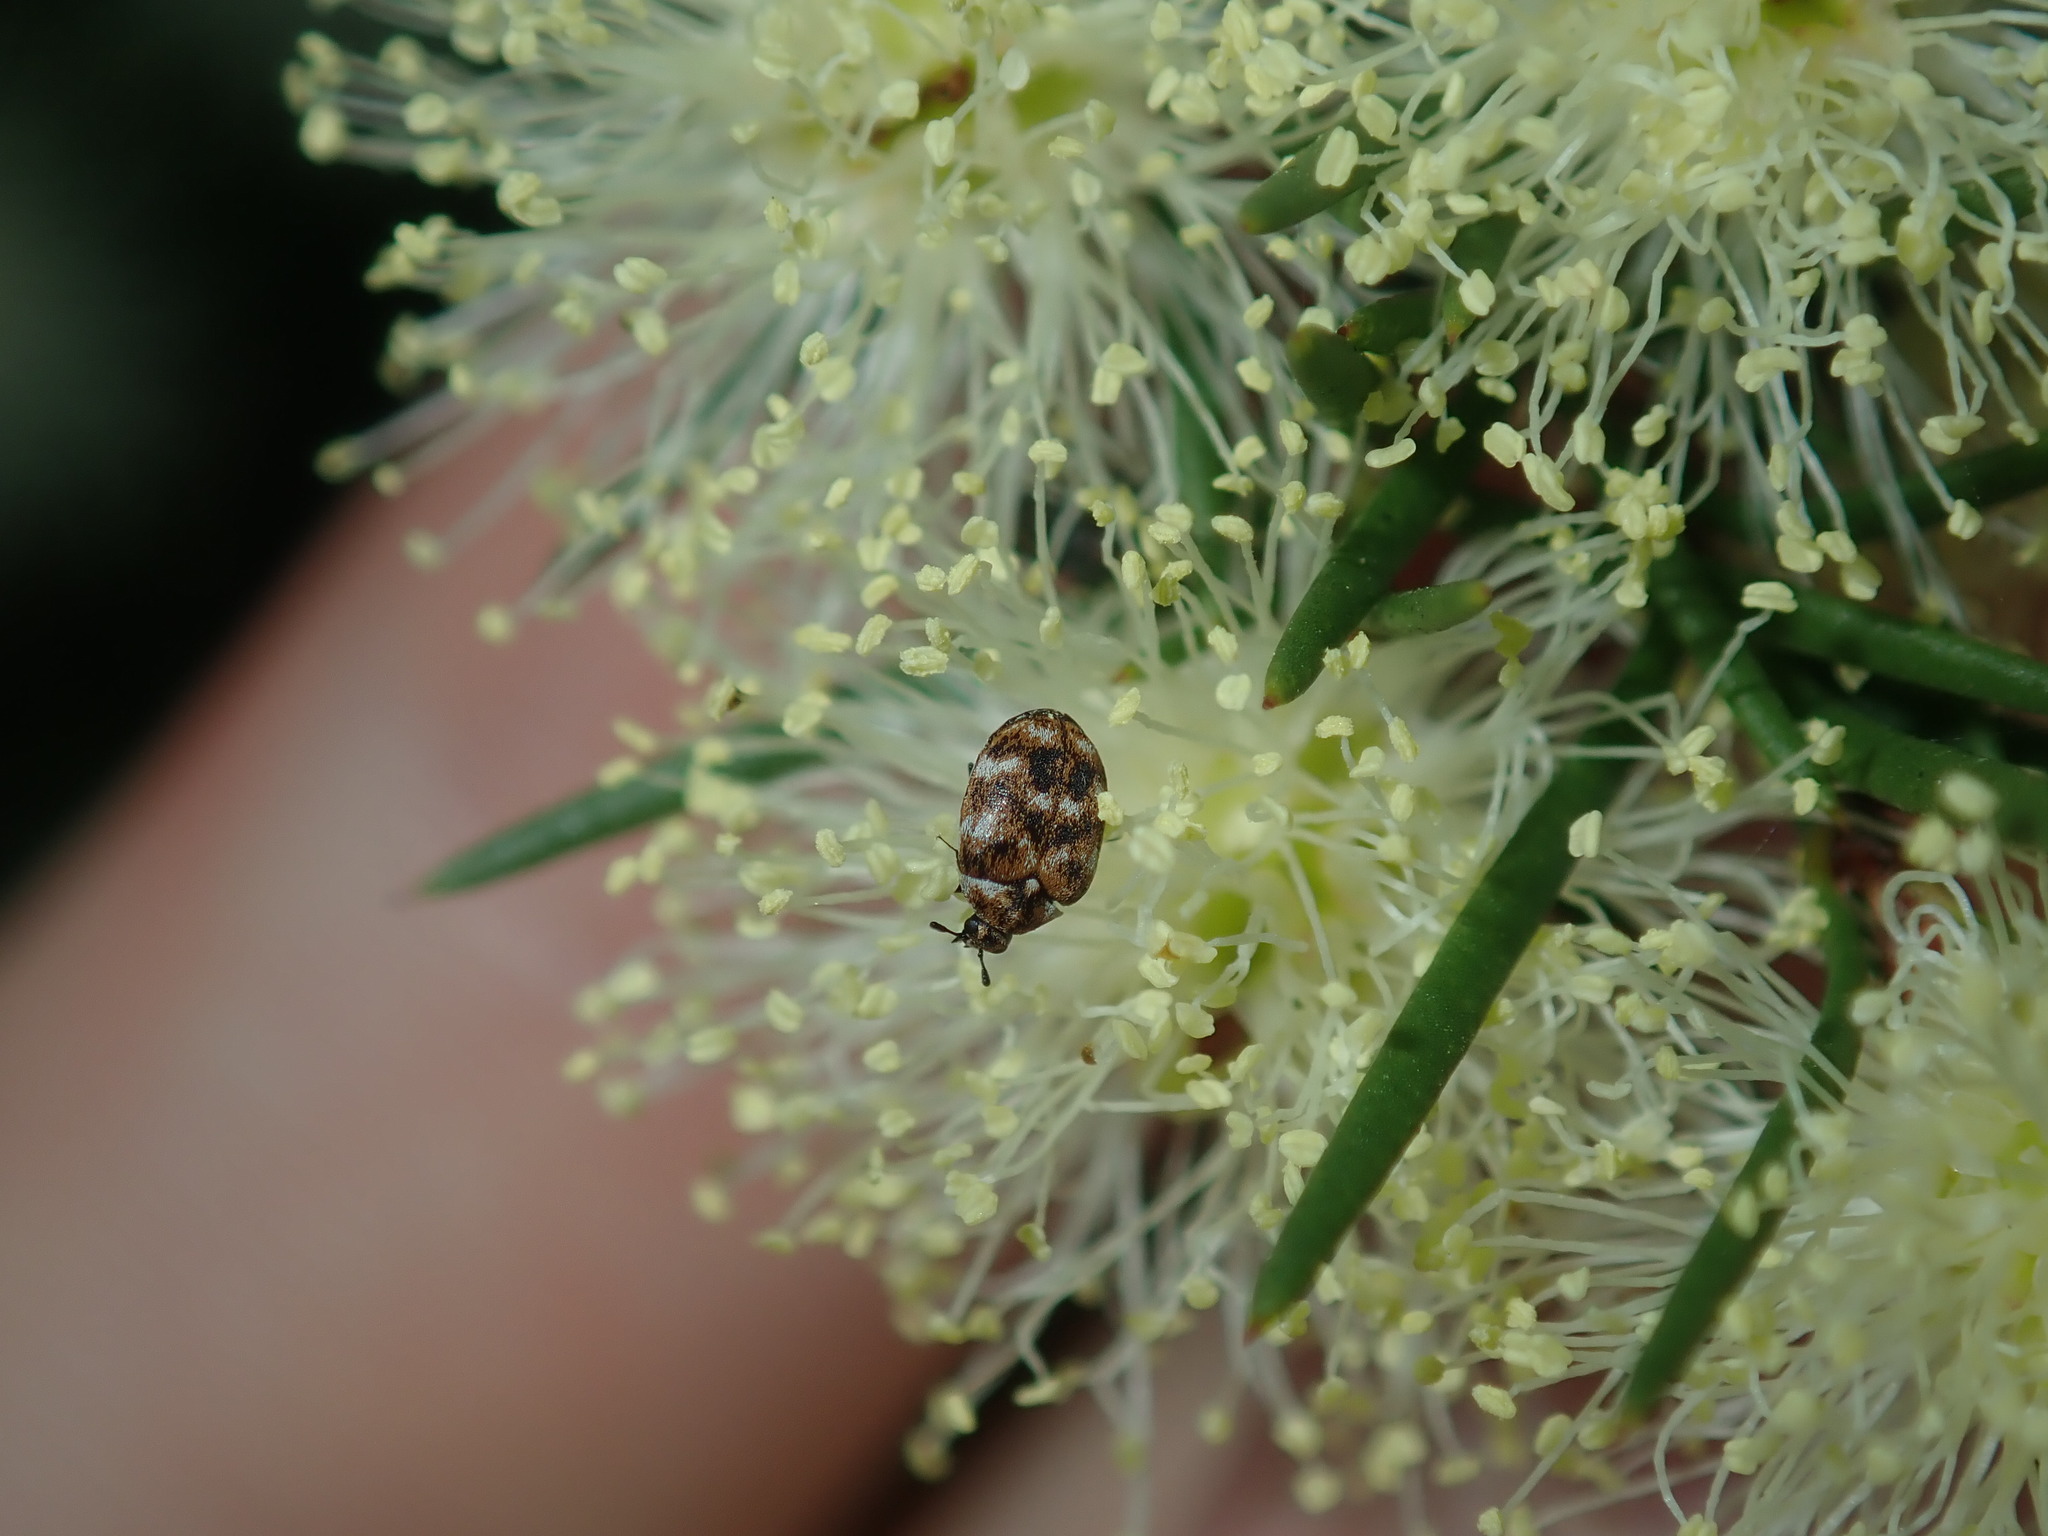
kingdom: Animalia
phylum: Arthropoda
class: Insecta
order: Coleoptera
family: Dermestidae
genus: Anthrenus
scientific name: Anthrenus verbasci
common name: Varied carpet beetle
